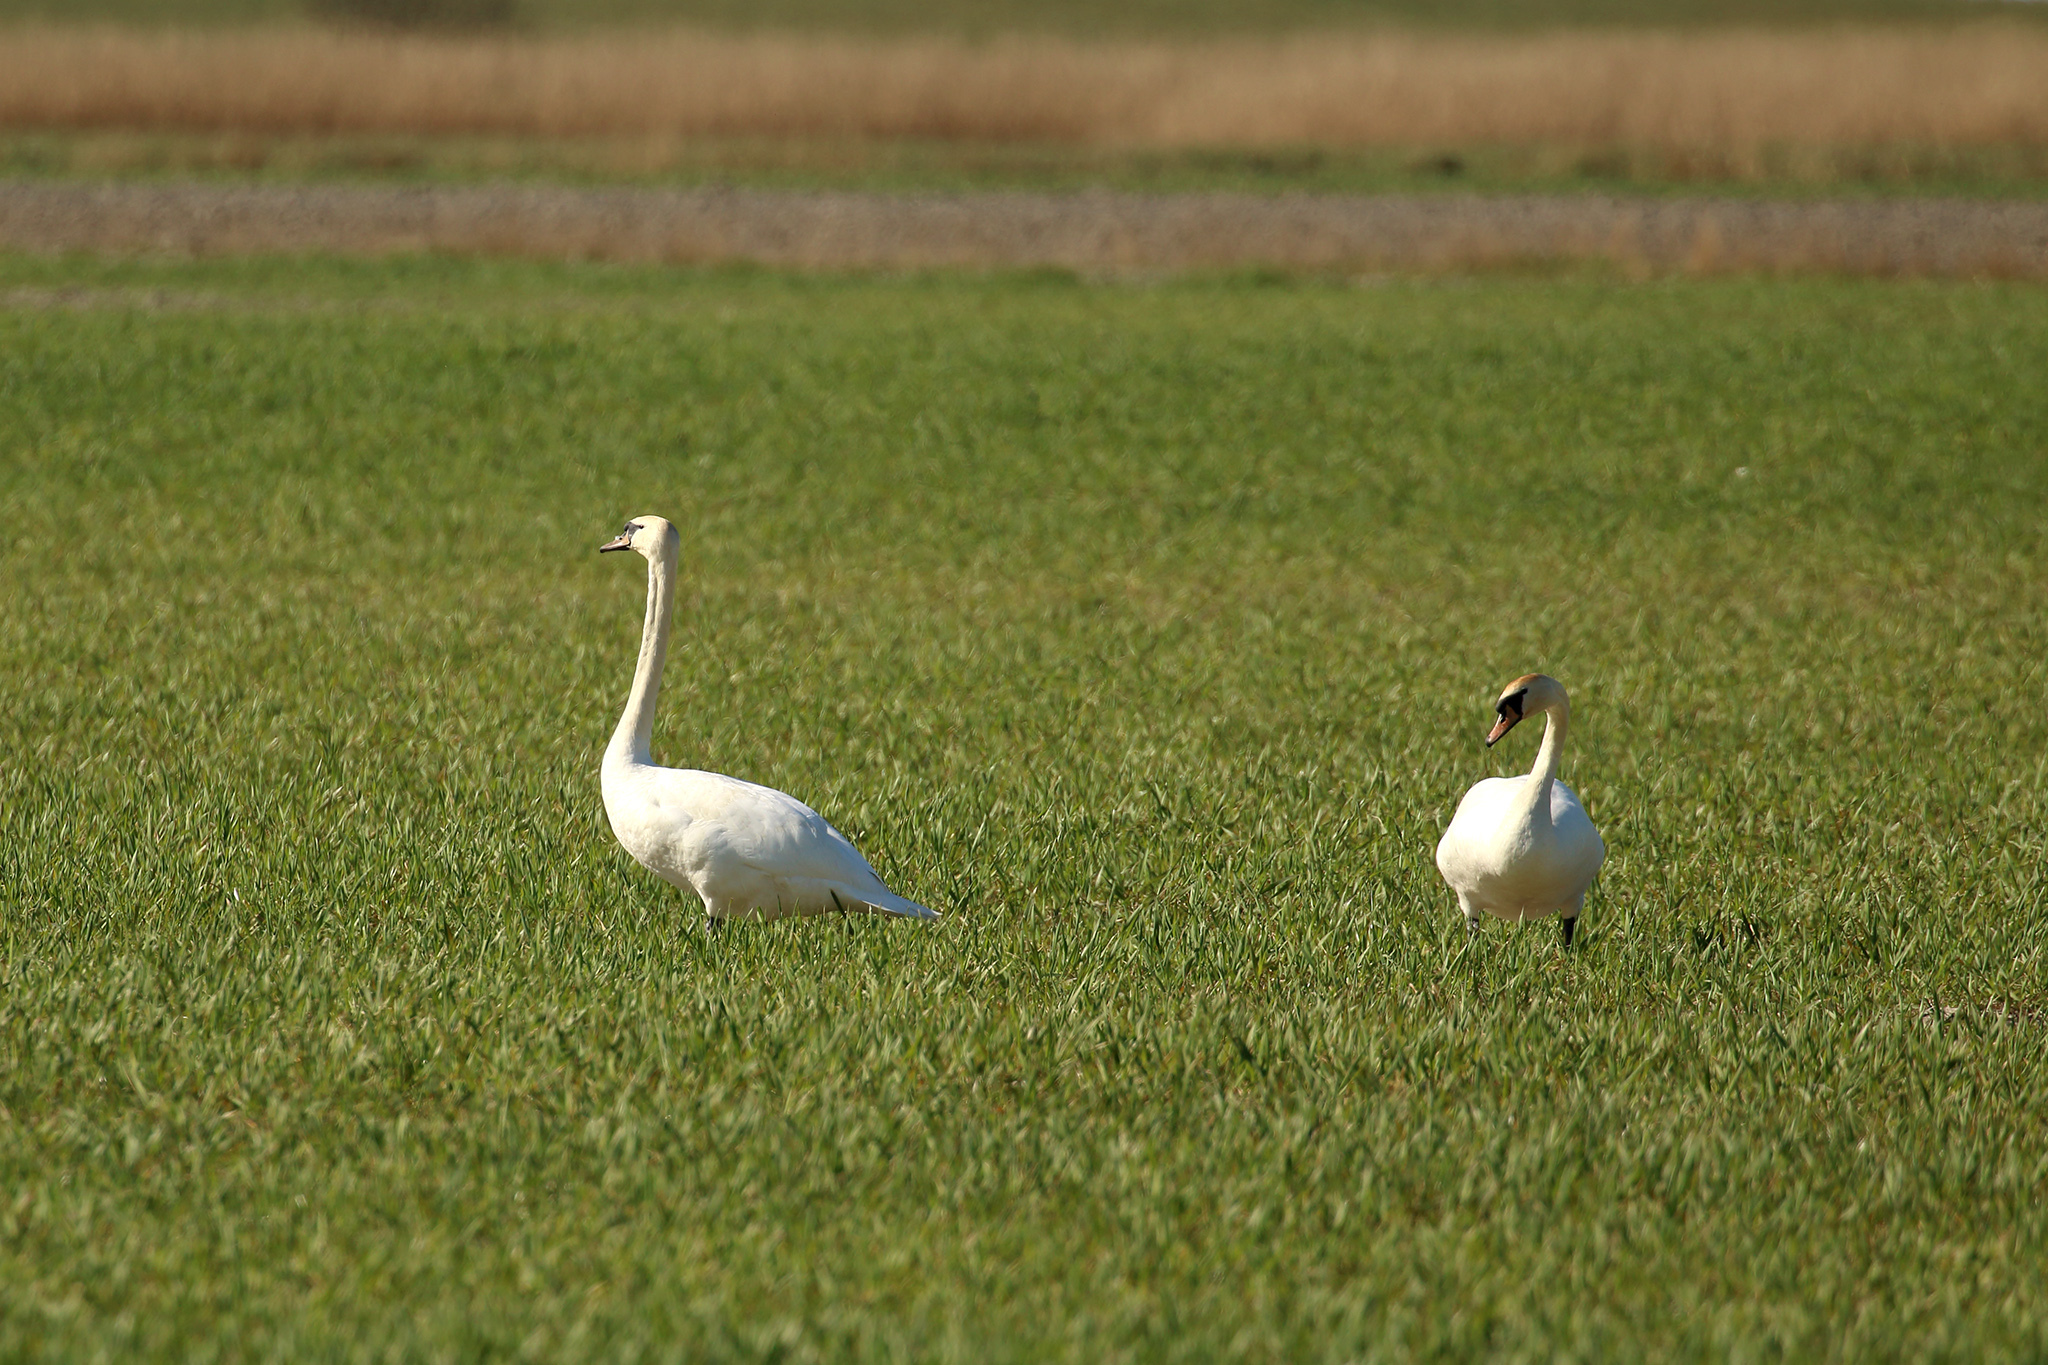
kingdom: Animalia
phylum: Chordata
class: Aves
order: Anseriformes
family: Anatidae
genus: Cygnus
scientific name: Cygnus olor
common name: Mute swan
